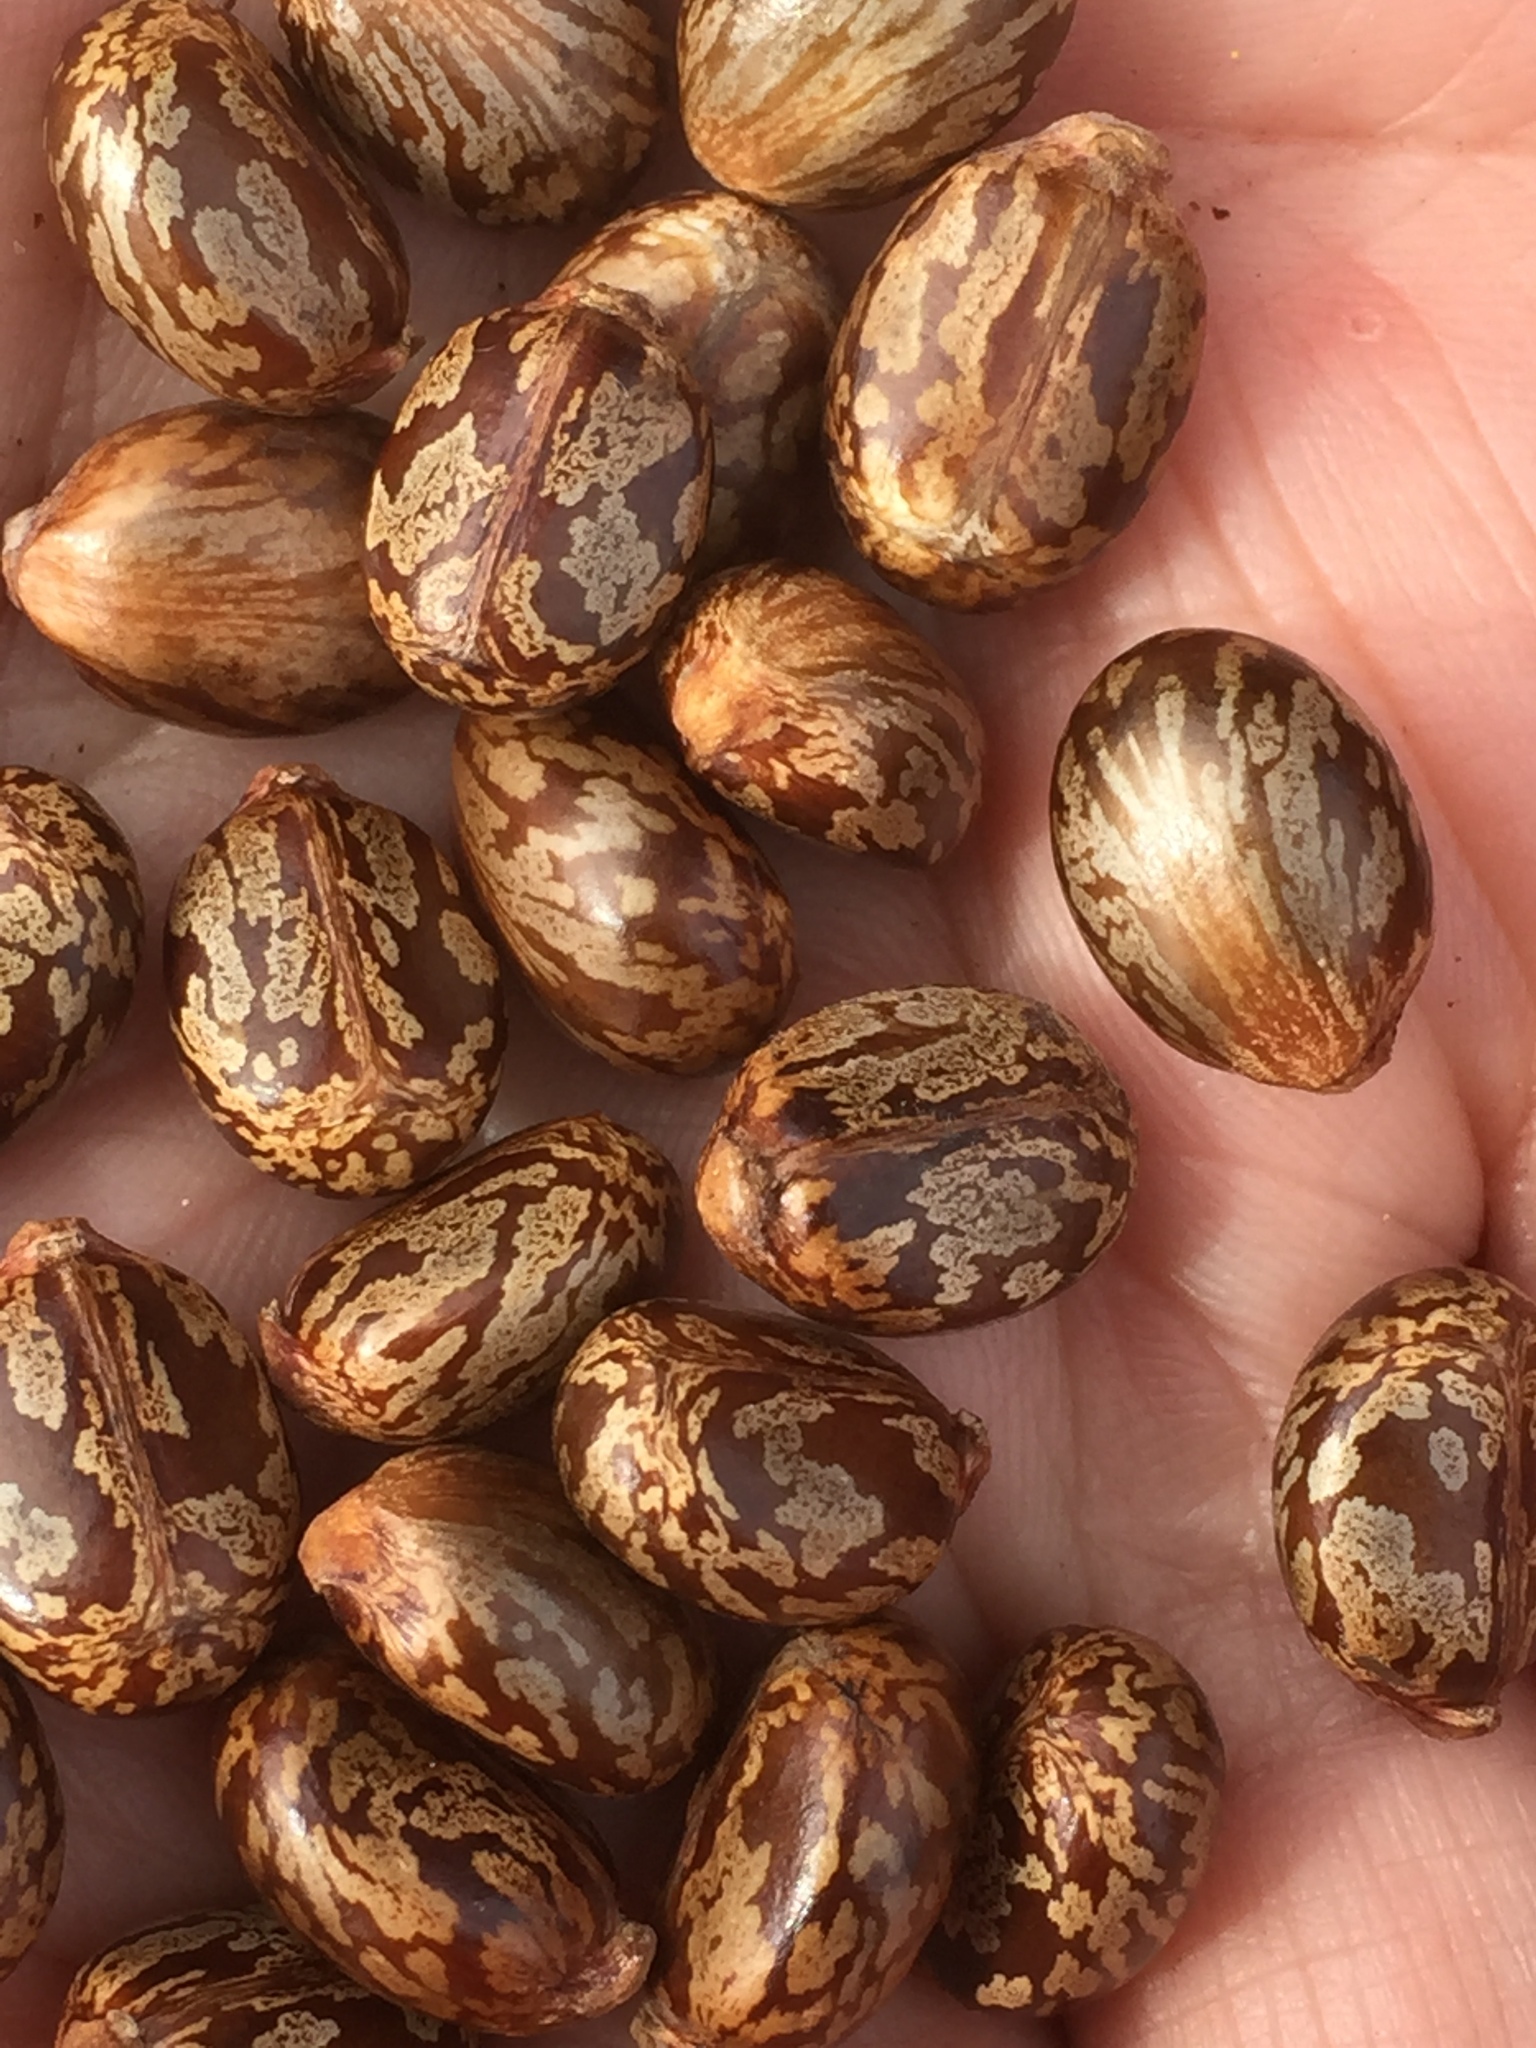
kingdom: Plantae
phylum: Tracheophyta
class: Magnoliopsida
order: Malpighiales
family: Euphorbiaceae
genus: Ricinus
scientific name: Ricinus communis
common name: Castor-oil-plant
